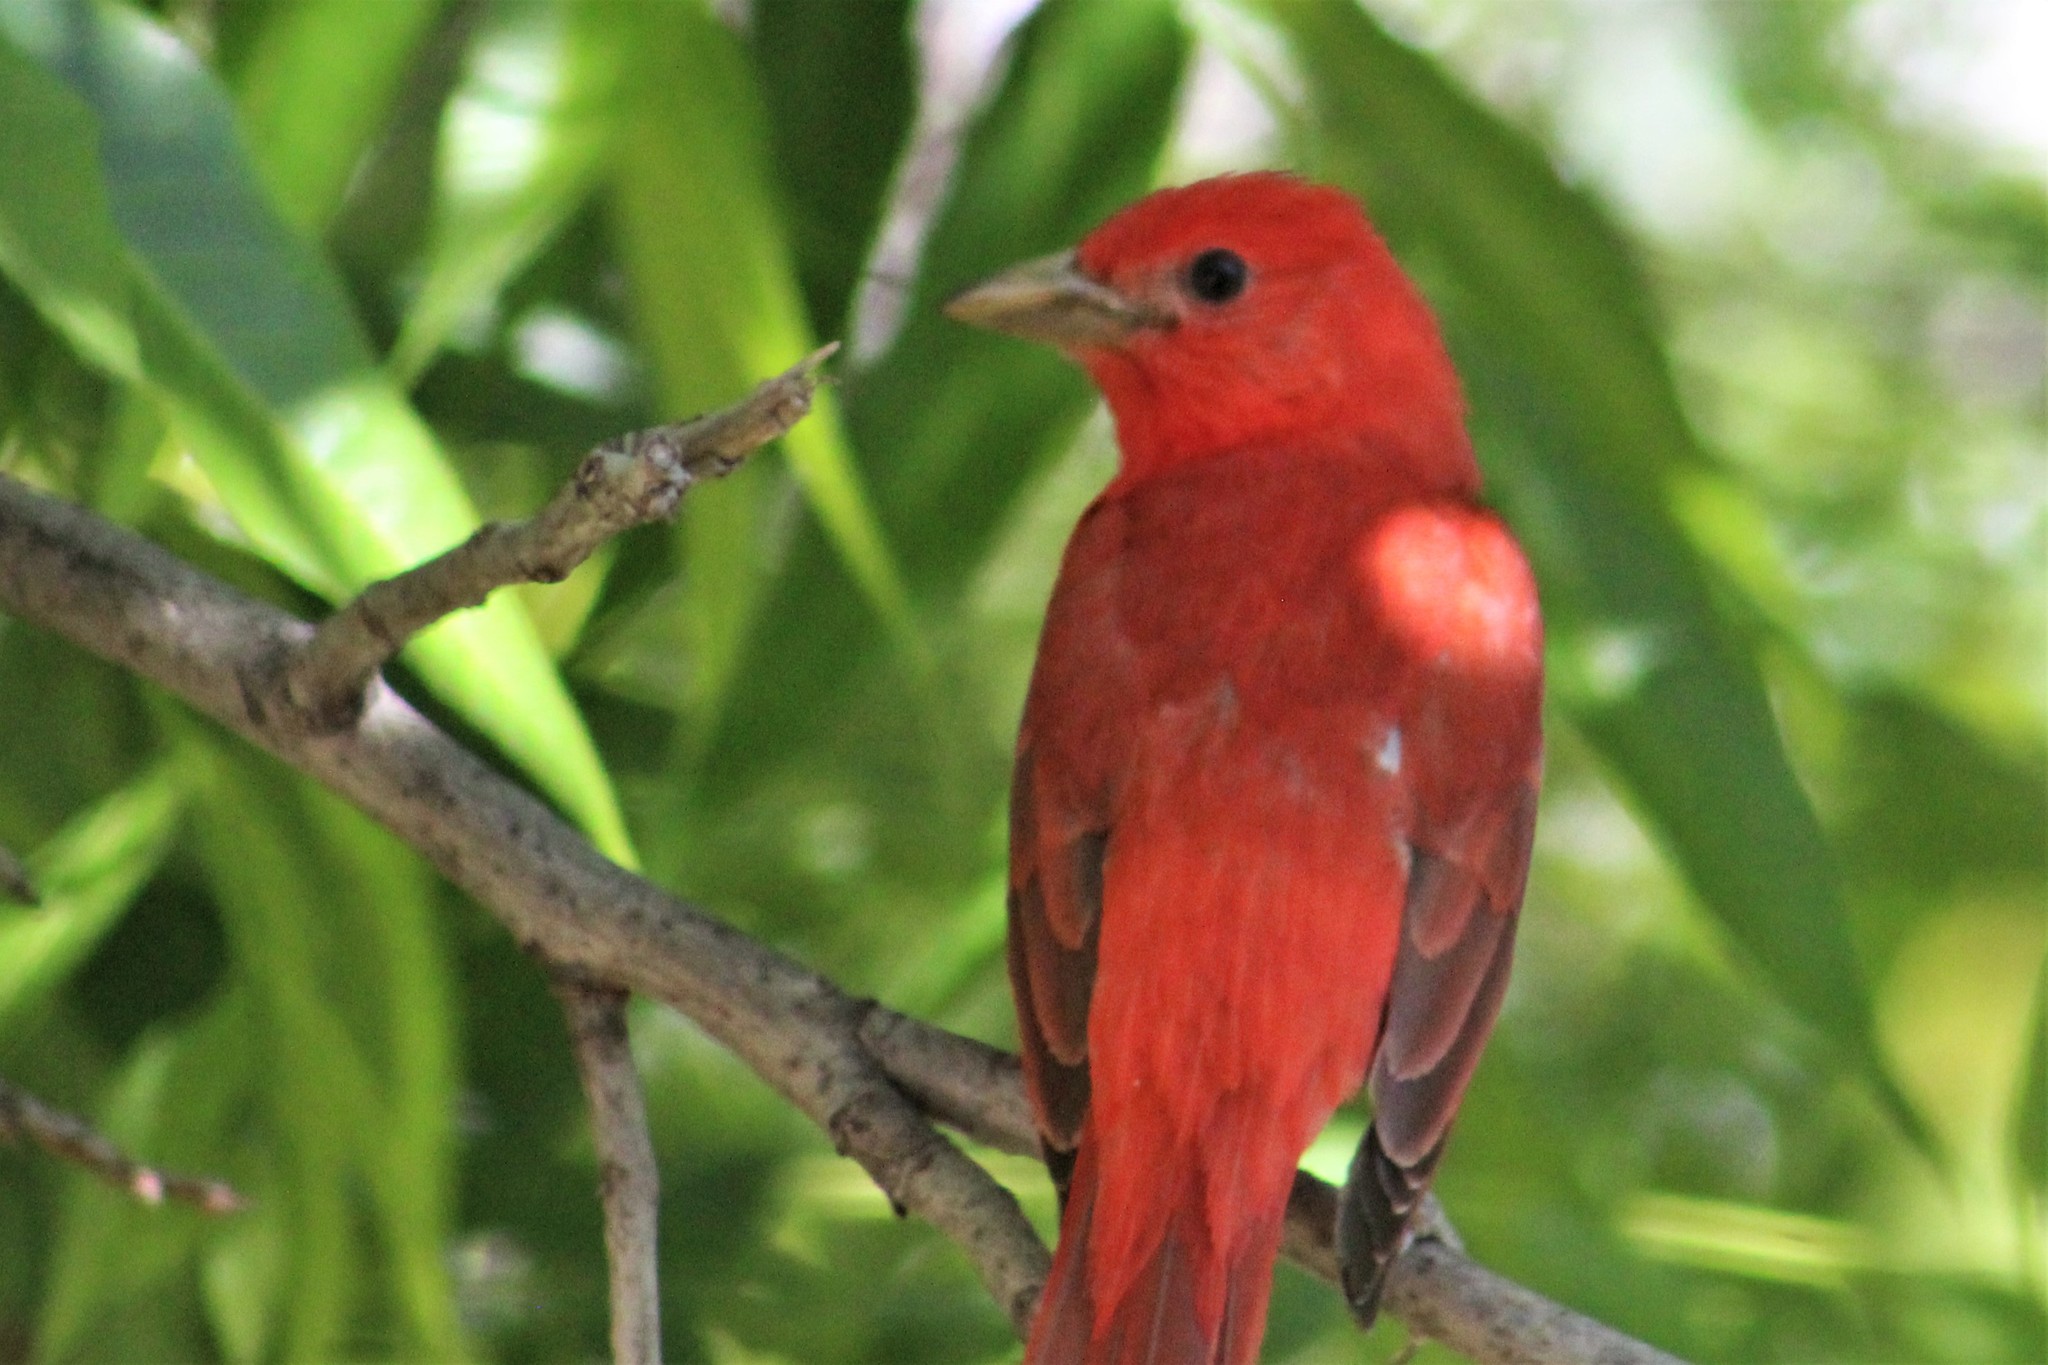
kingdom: Animalia
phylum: Chordata
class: Aves
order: Passeriformes
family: Cardinalidae
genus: Piranga
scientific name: Piranga rubra
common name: Summer tanager
